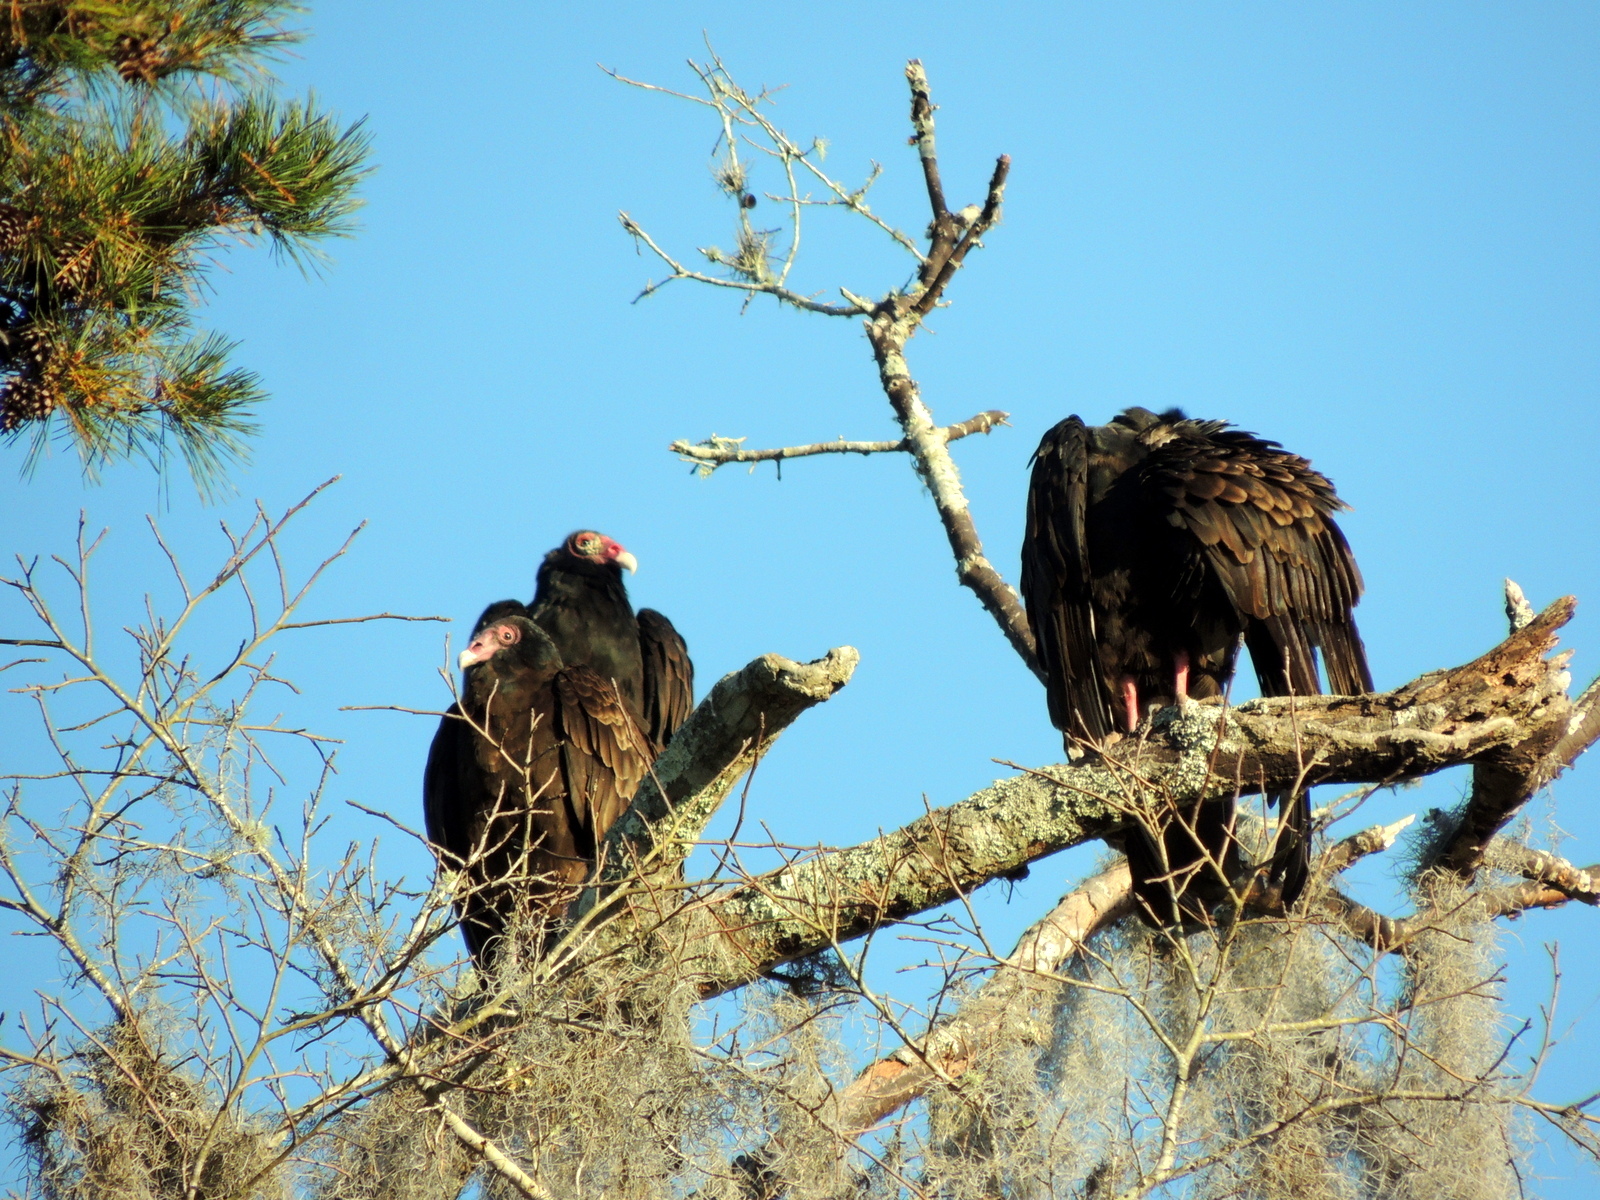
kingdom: Animalia
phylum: Chordata
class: Aves
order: Accipitriformes
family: Cathartidae
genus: Cathartes
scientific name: Cathartes aura
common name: Turkey vulture
